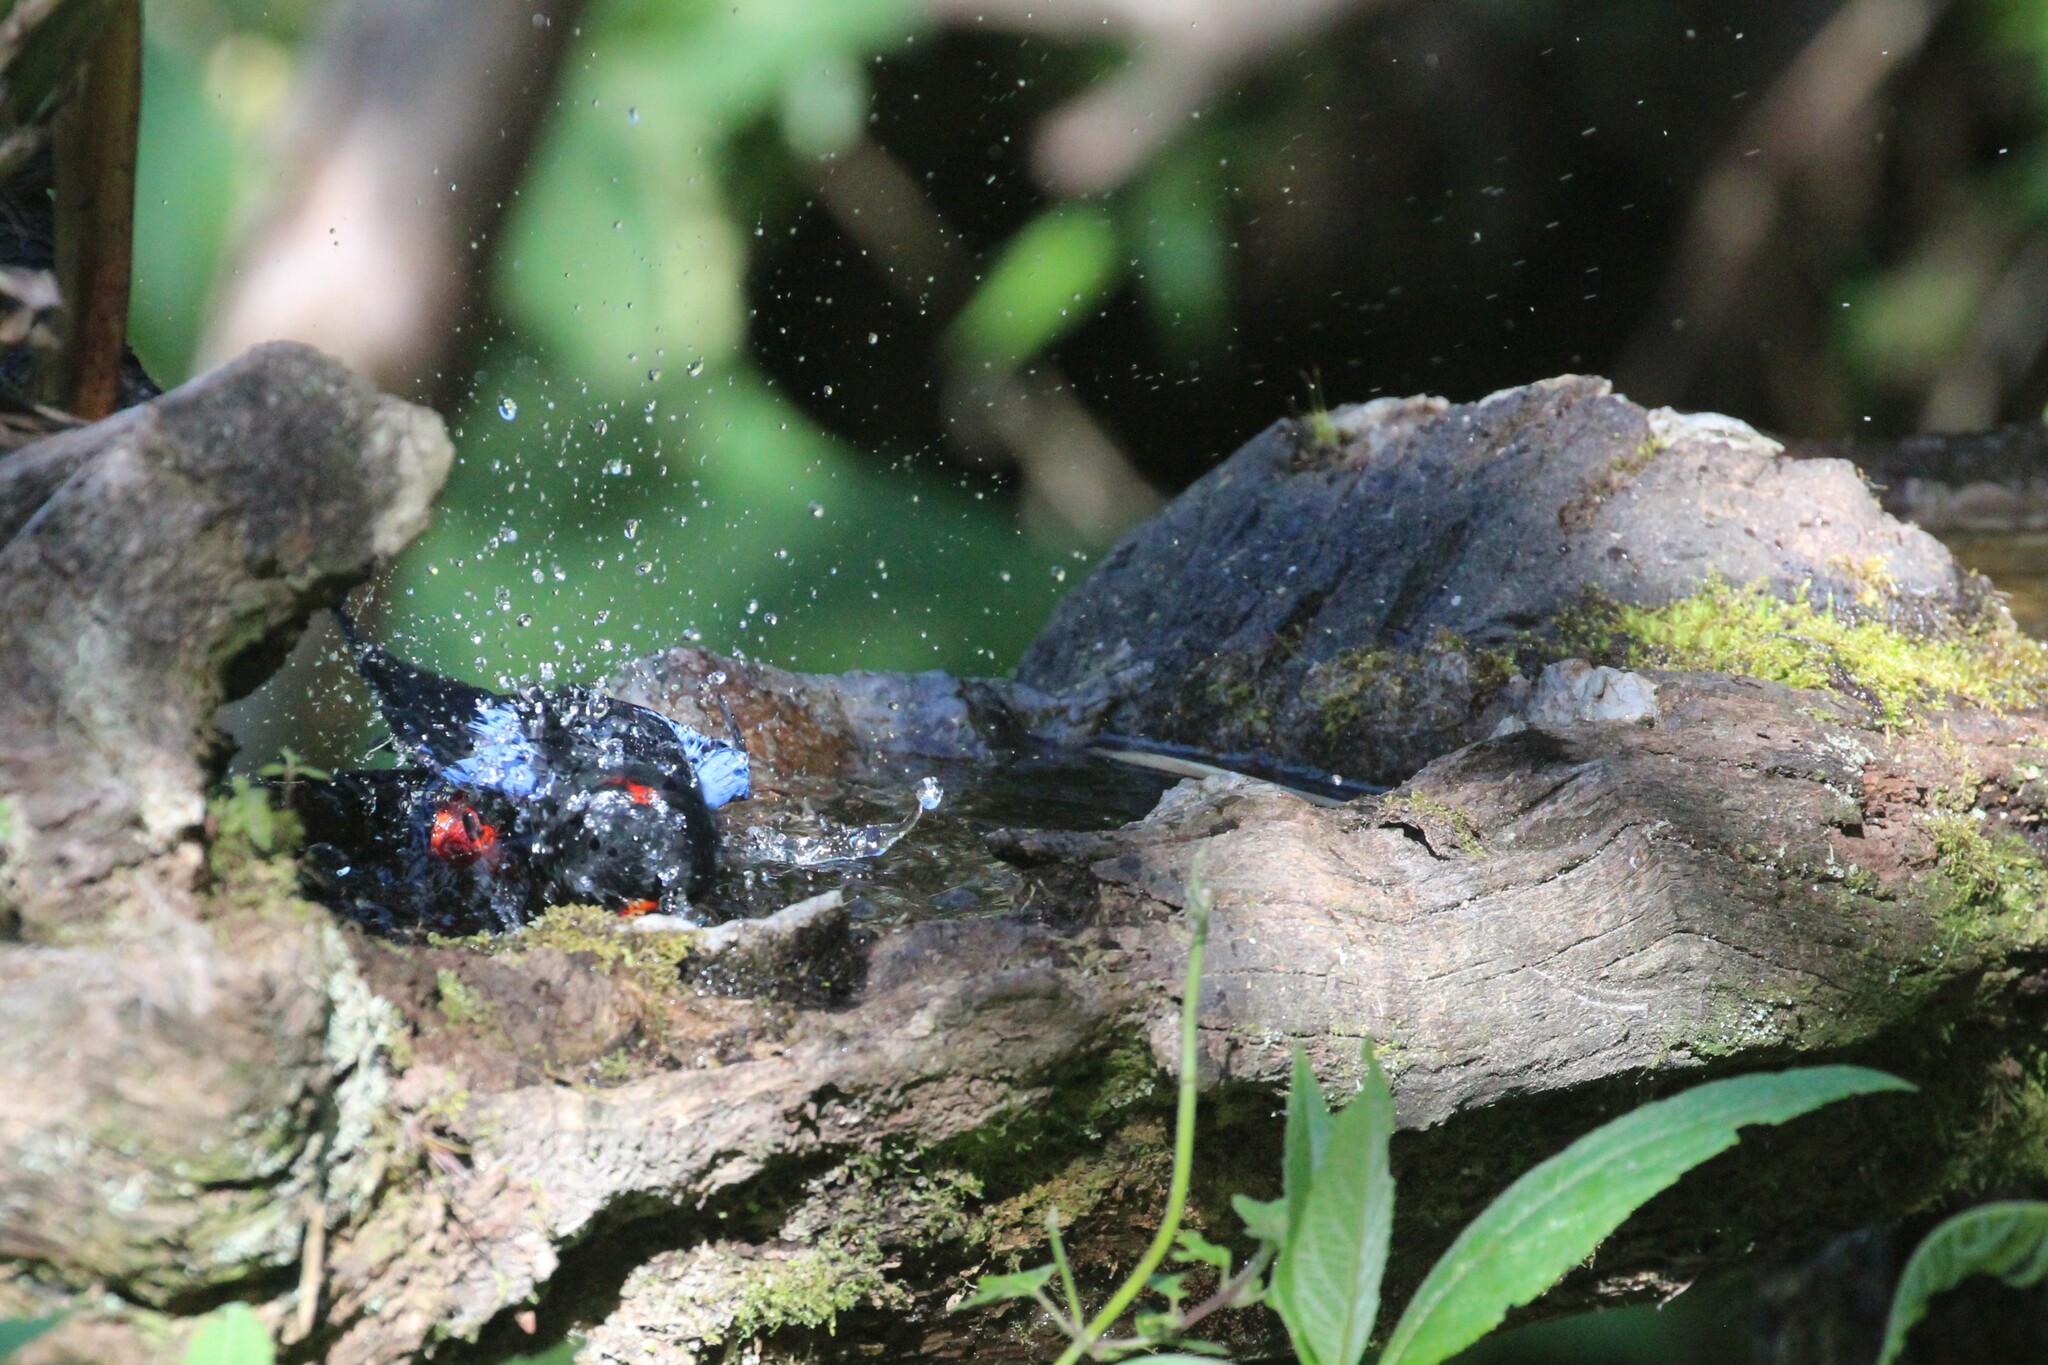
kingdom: Animalia
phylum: Chordata
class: Aves
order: Passeriformes
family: Thraupidae
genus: Anisognathus
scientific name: Anisognathus igniventris
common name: Scarlet-bellied mountain tanager
